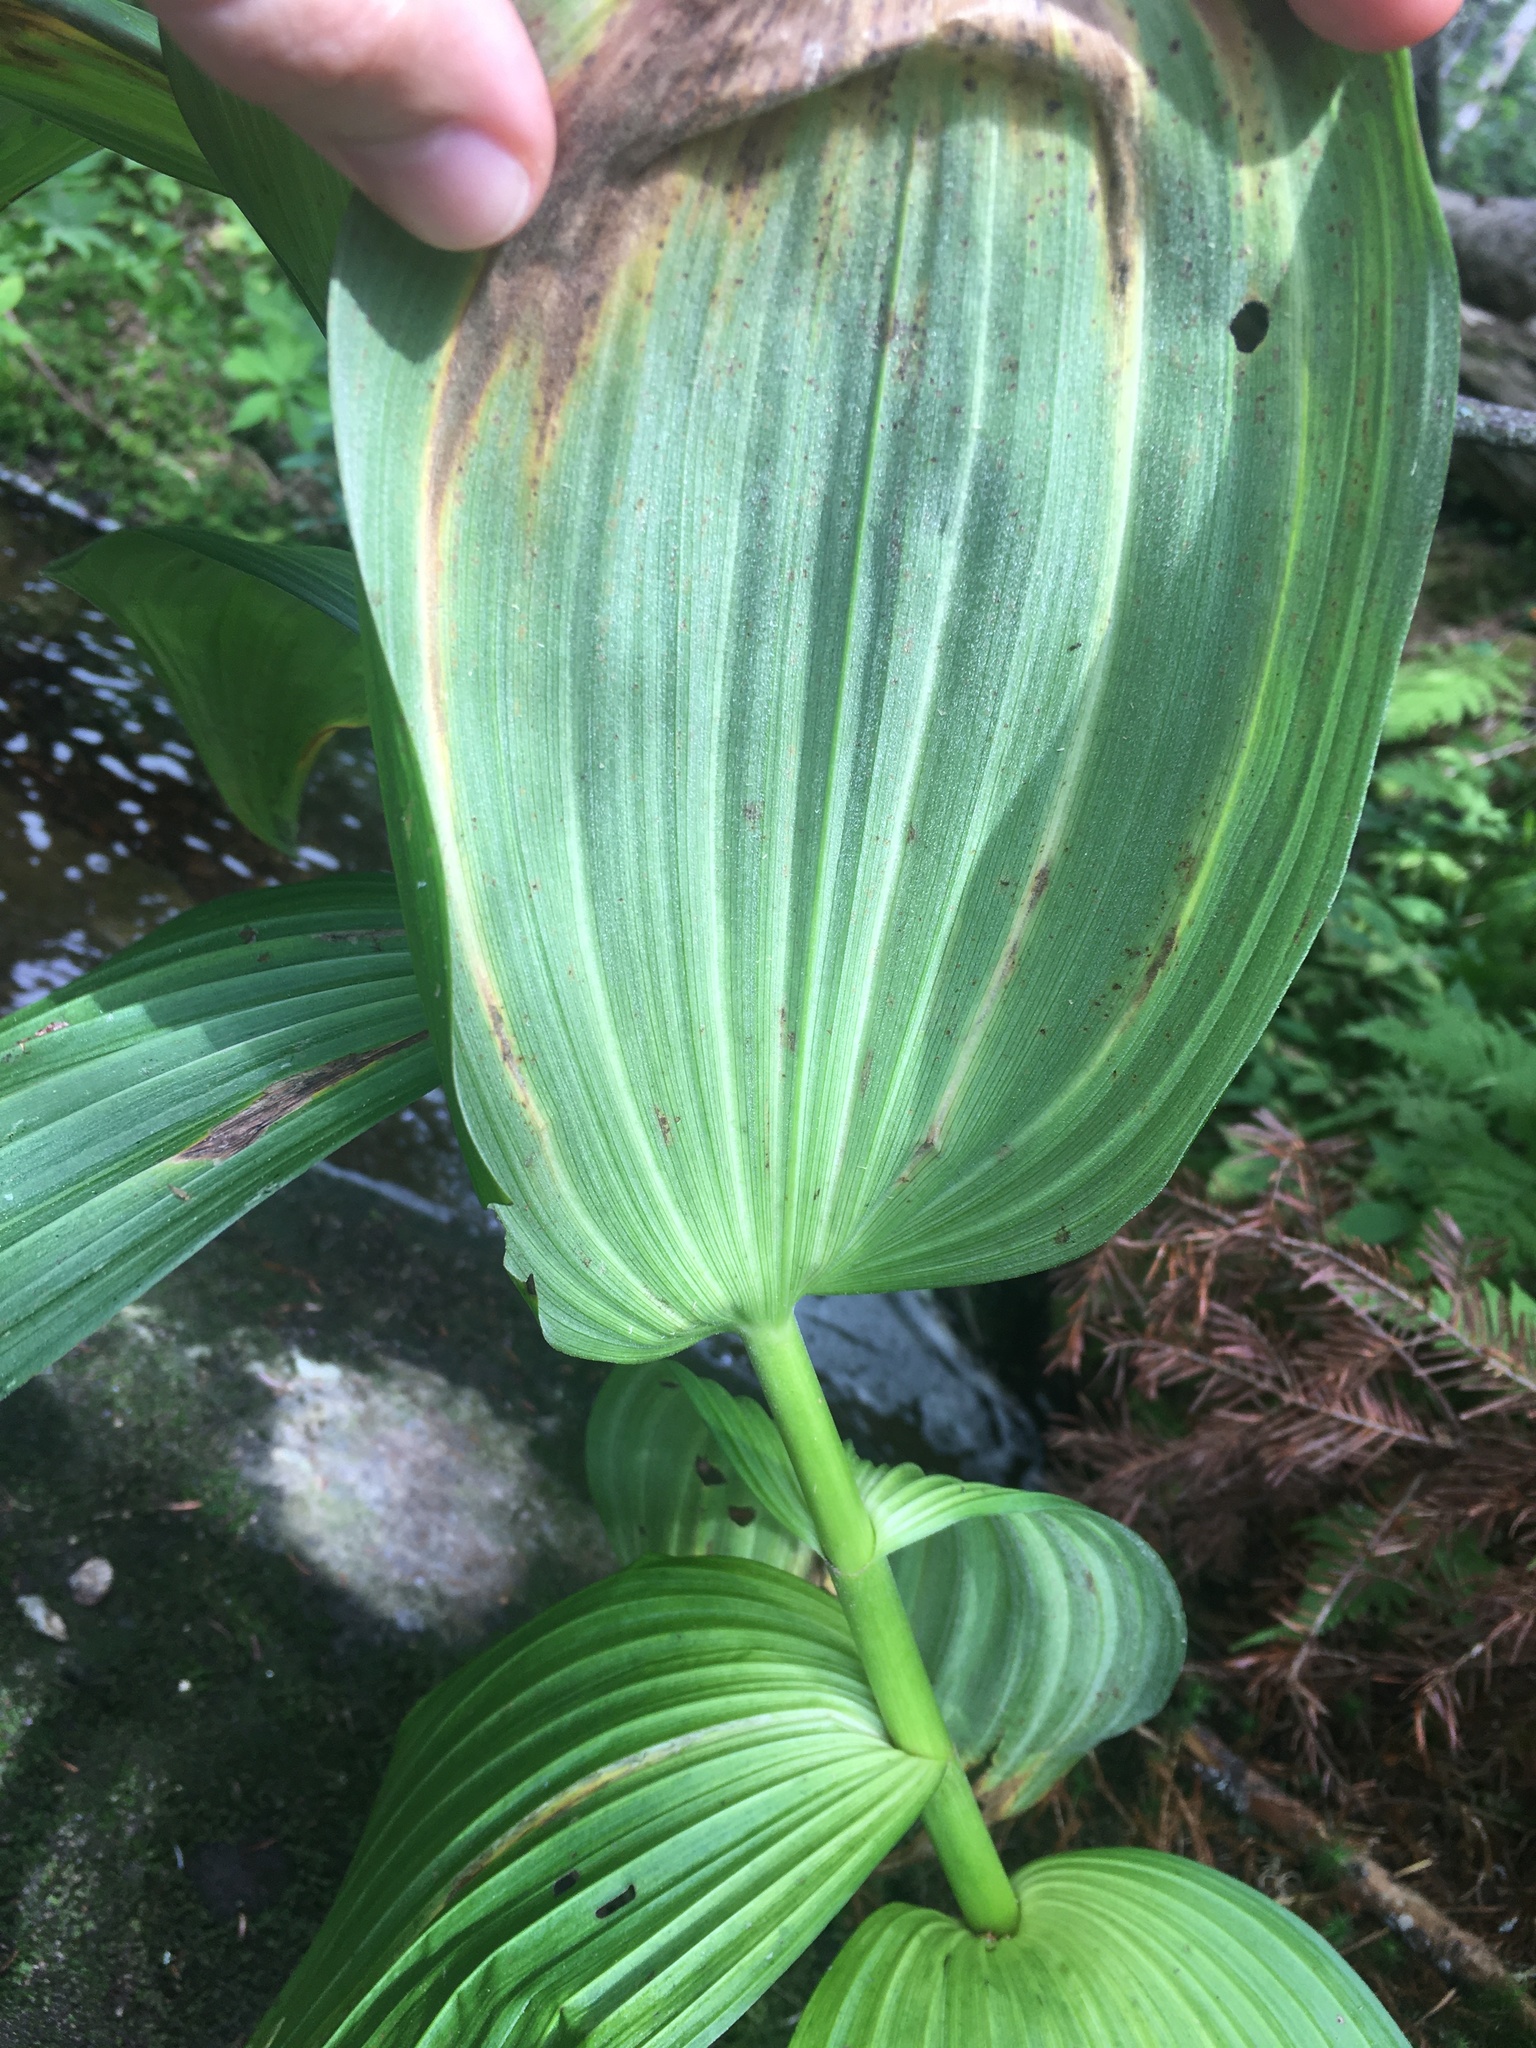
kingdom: Plantae
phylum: Tracheophyta
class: Liliopsida
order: Liliales
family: Melanthiaceae
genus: Veratrum
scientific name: Veratrum viride
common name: American false hellebore
